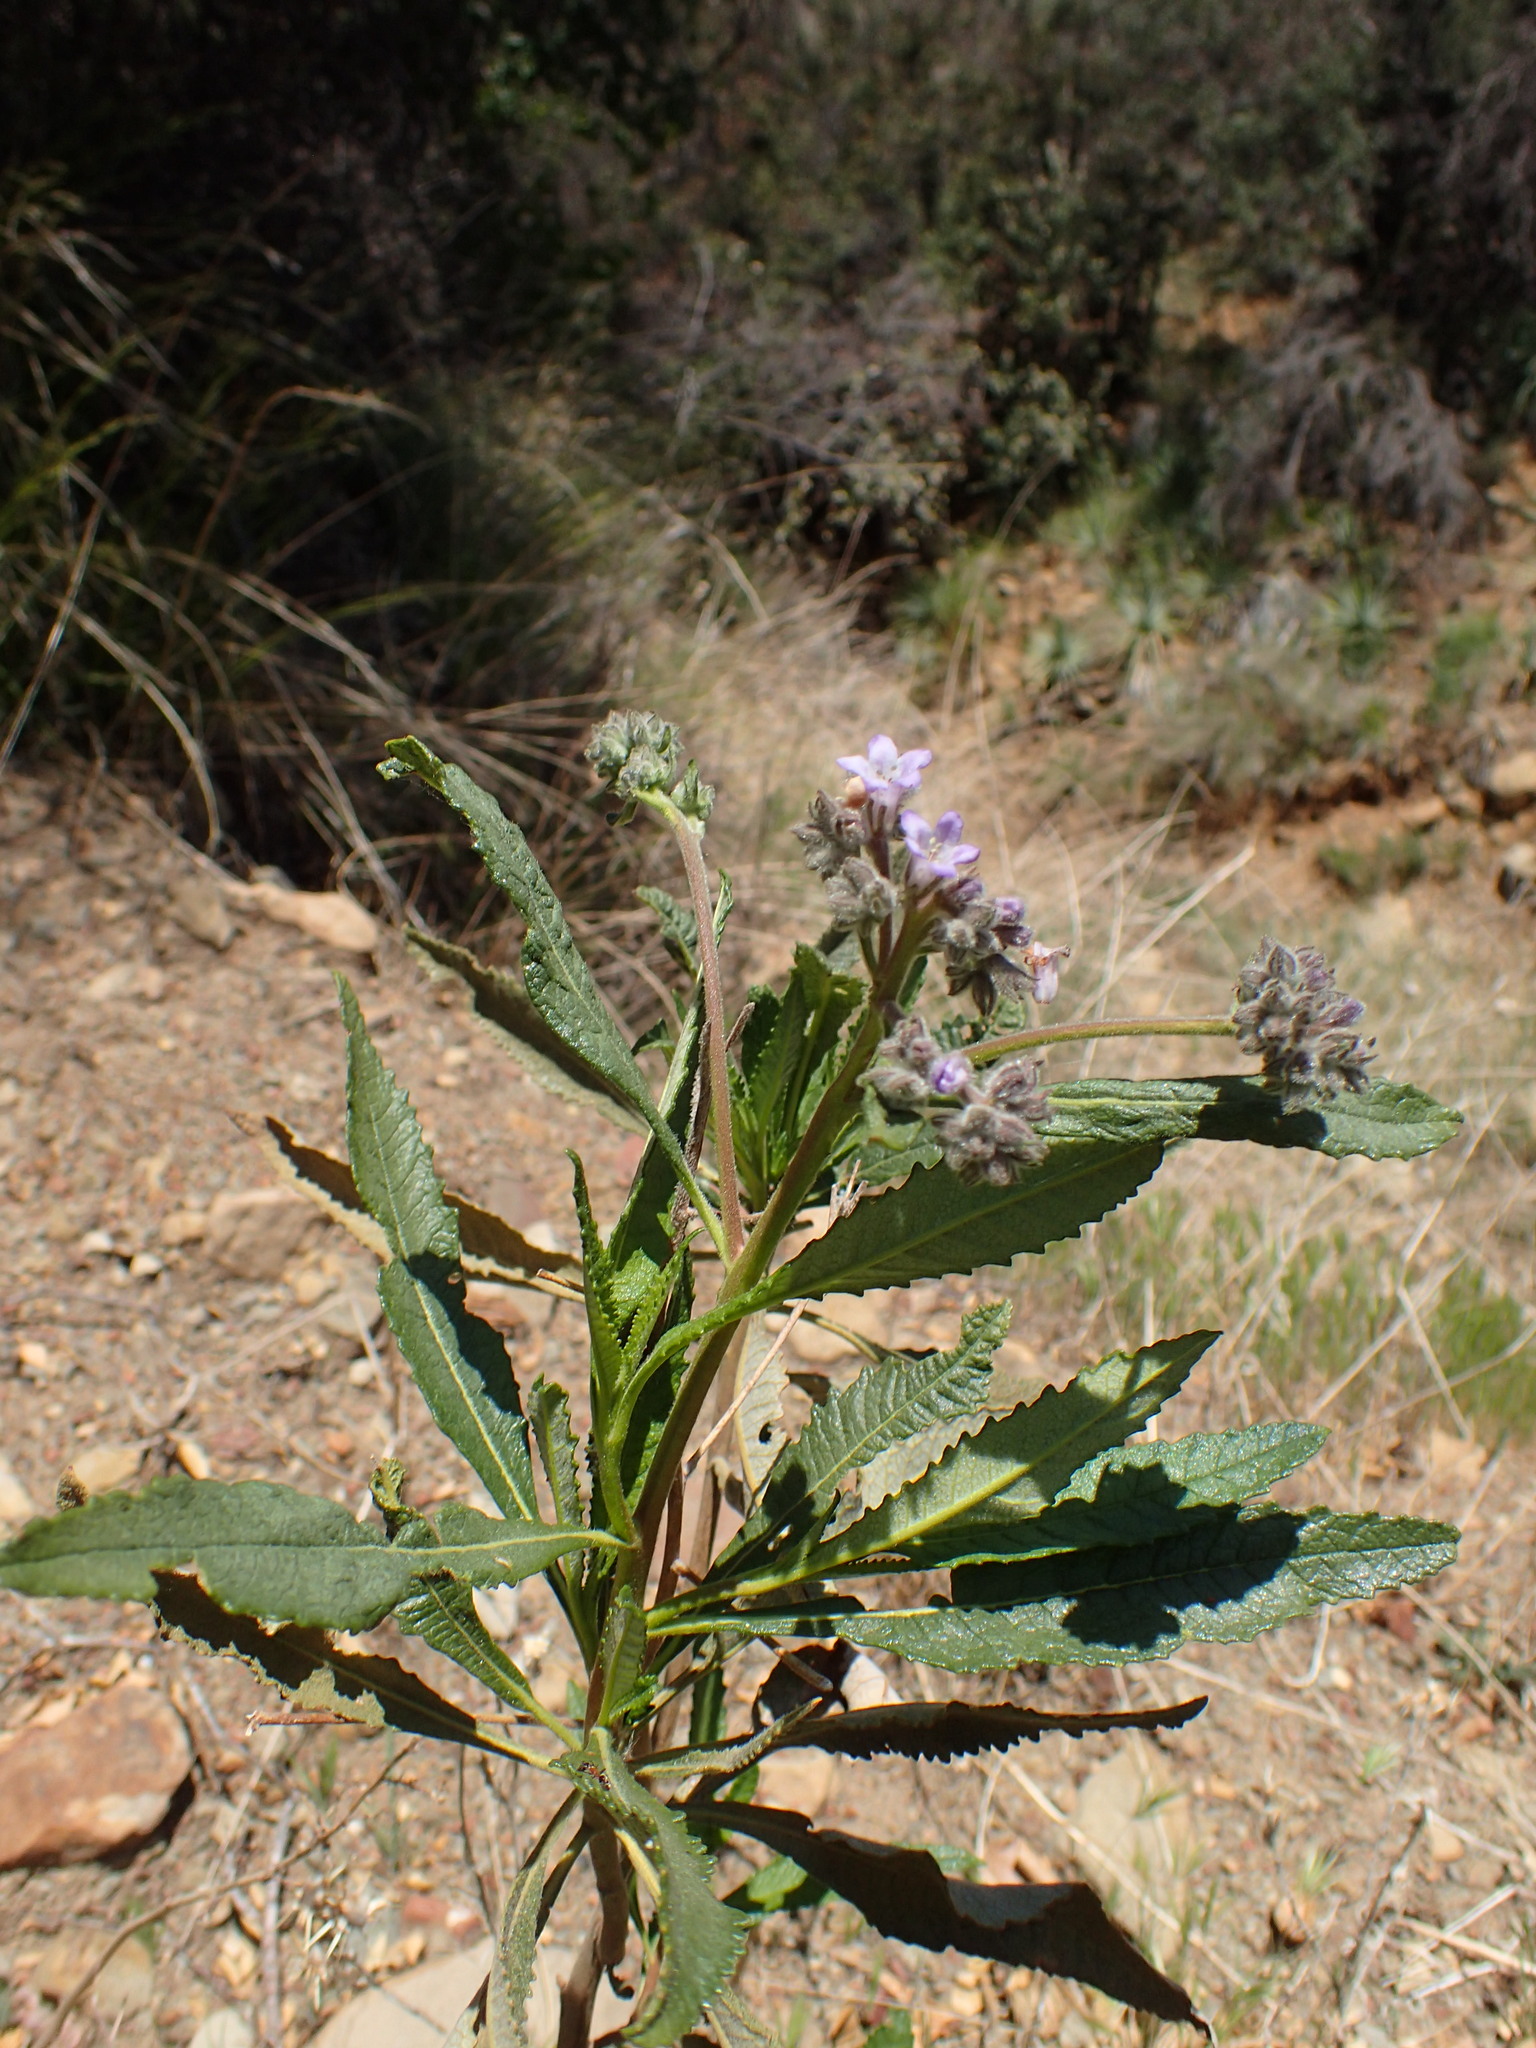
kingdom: Plantae
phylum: Tracheophyta
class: Magnoliopsida
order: Boraginales
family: Namaceae
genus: Eriodictyon
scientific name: Eriodictyon crassifolium
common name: Thick-leaf yerba-santa
